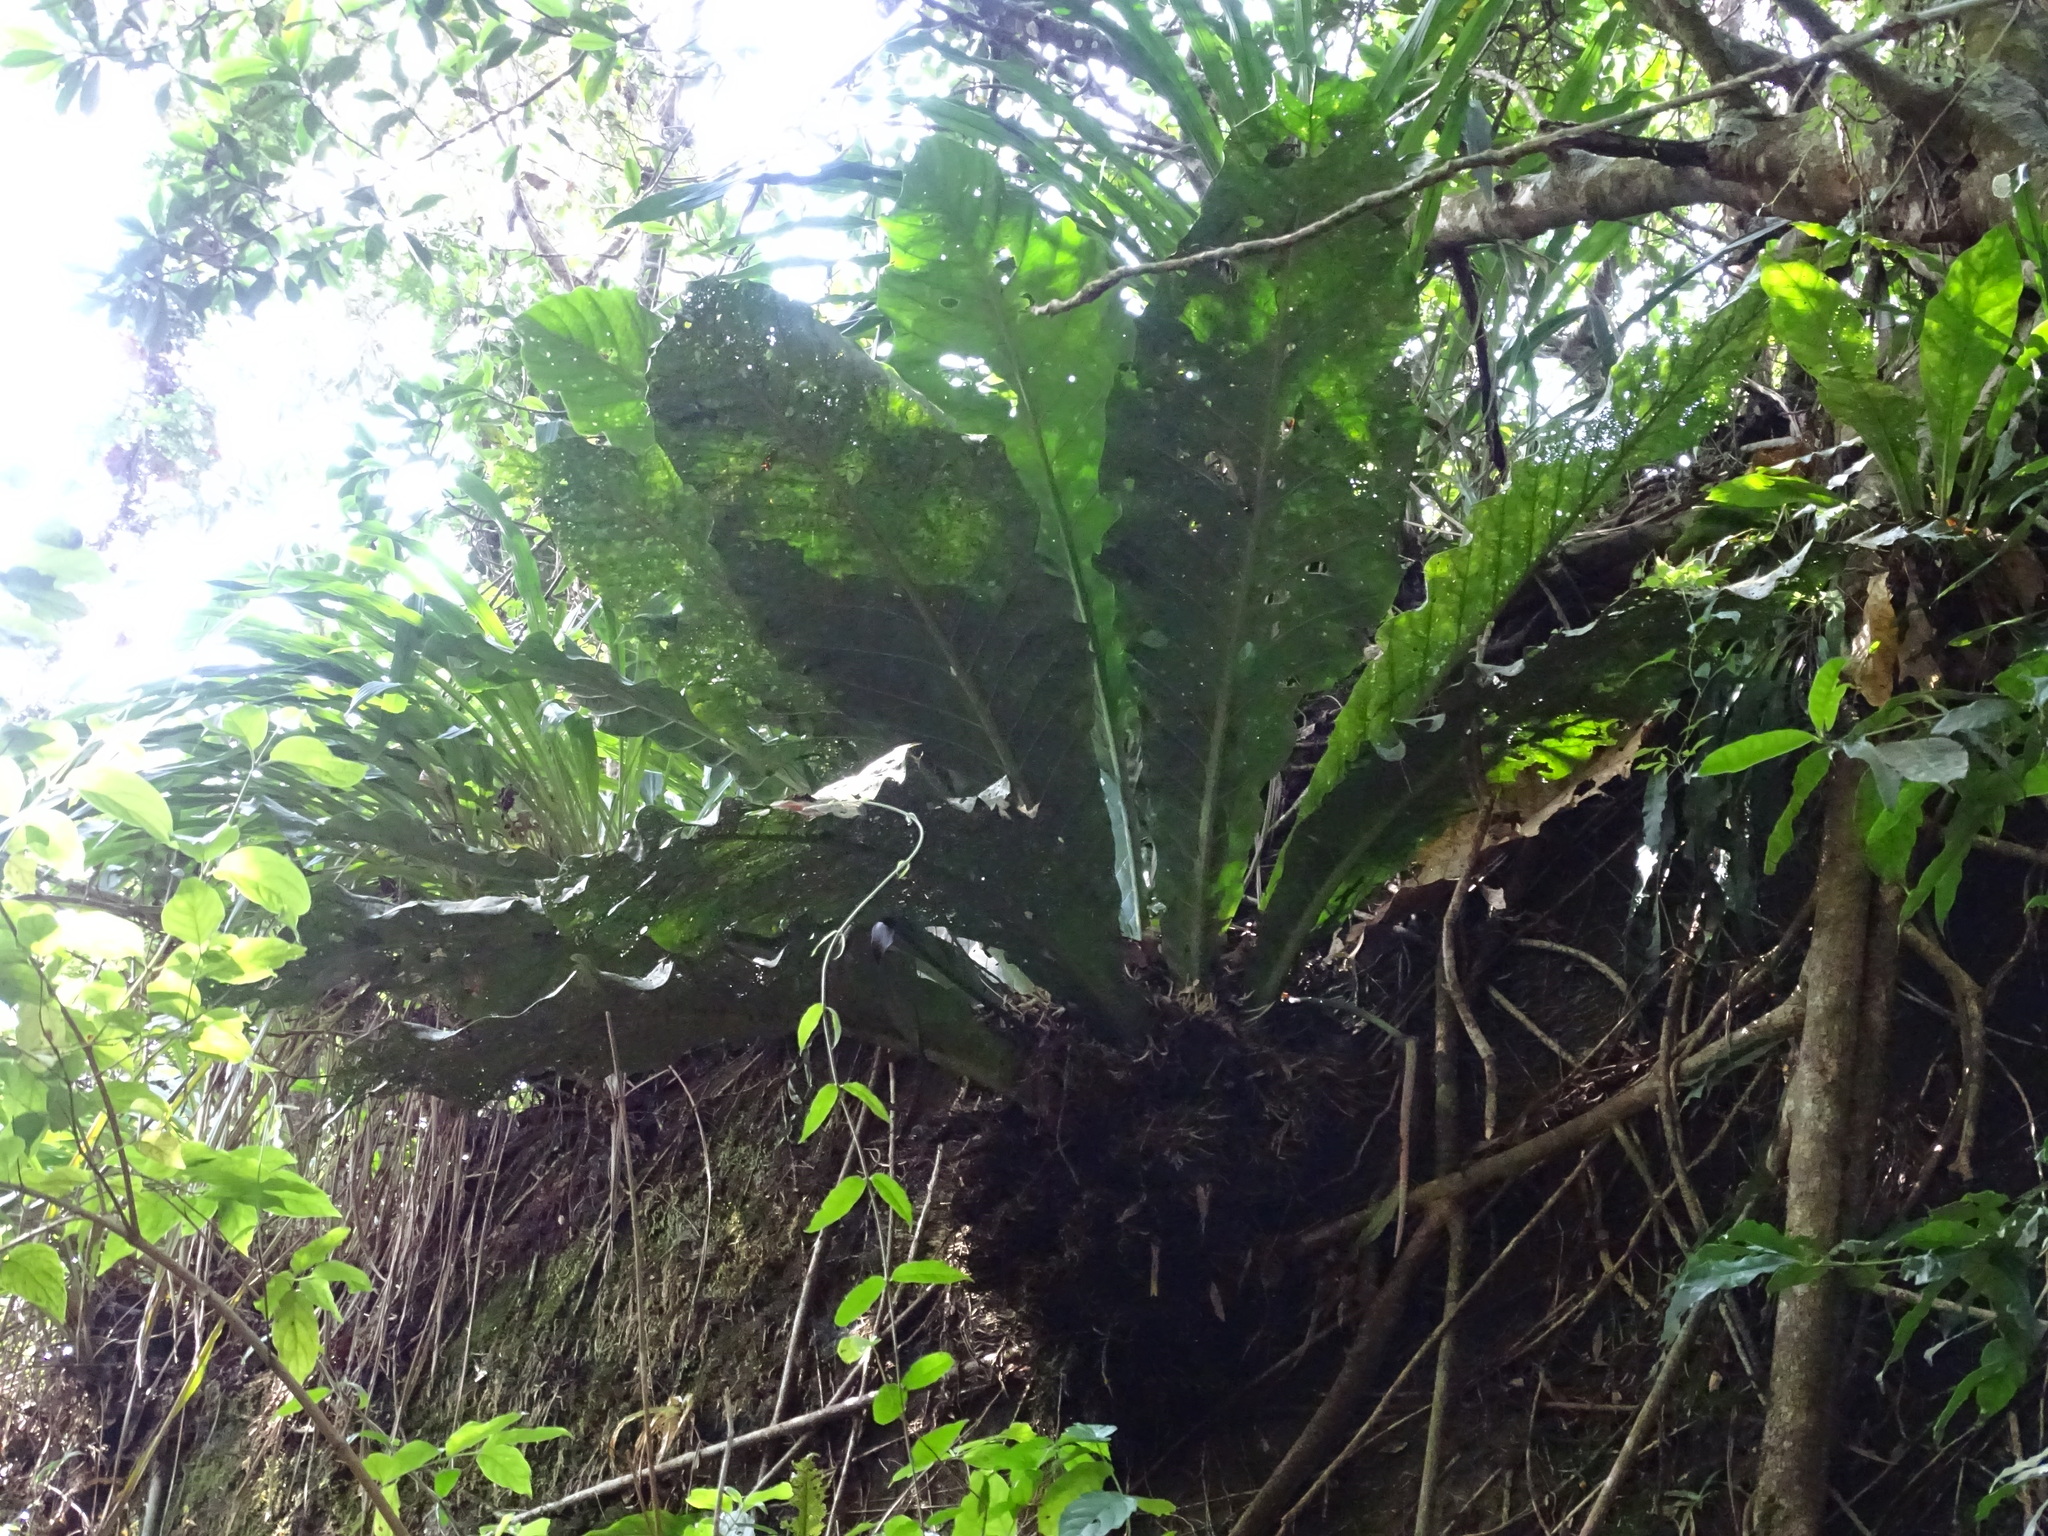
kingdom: Plantae
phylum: Tracheophyta
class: Liliopsida
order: Alismatales
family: Araceae
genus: Anthurium
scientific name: Anthurium salvinii
